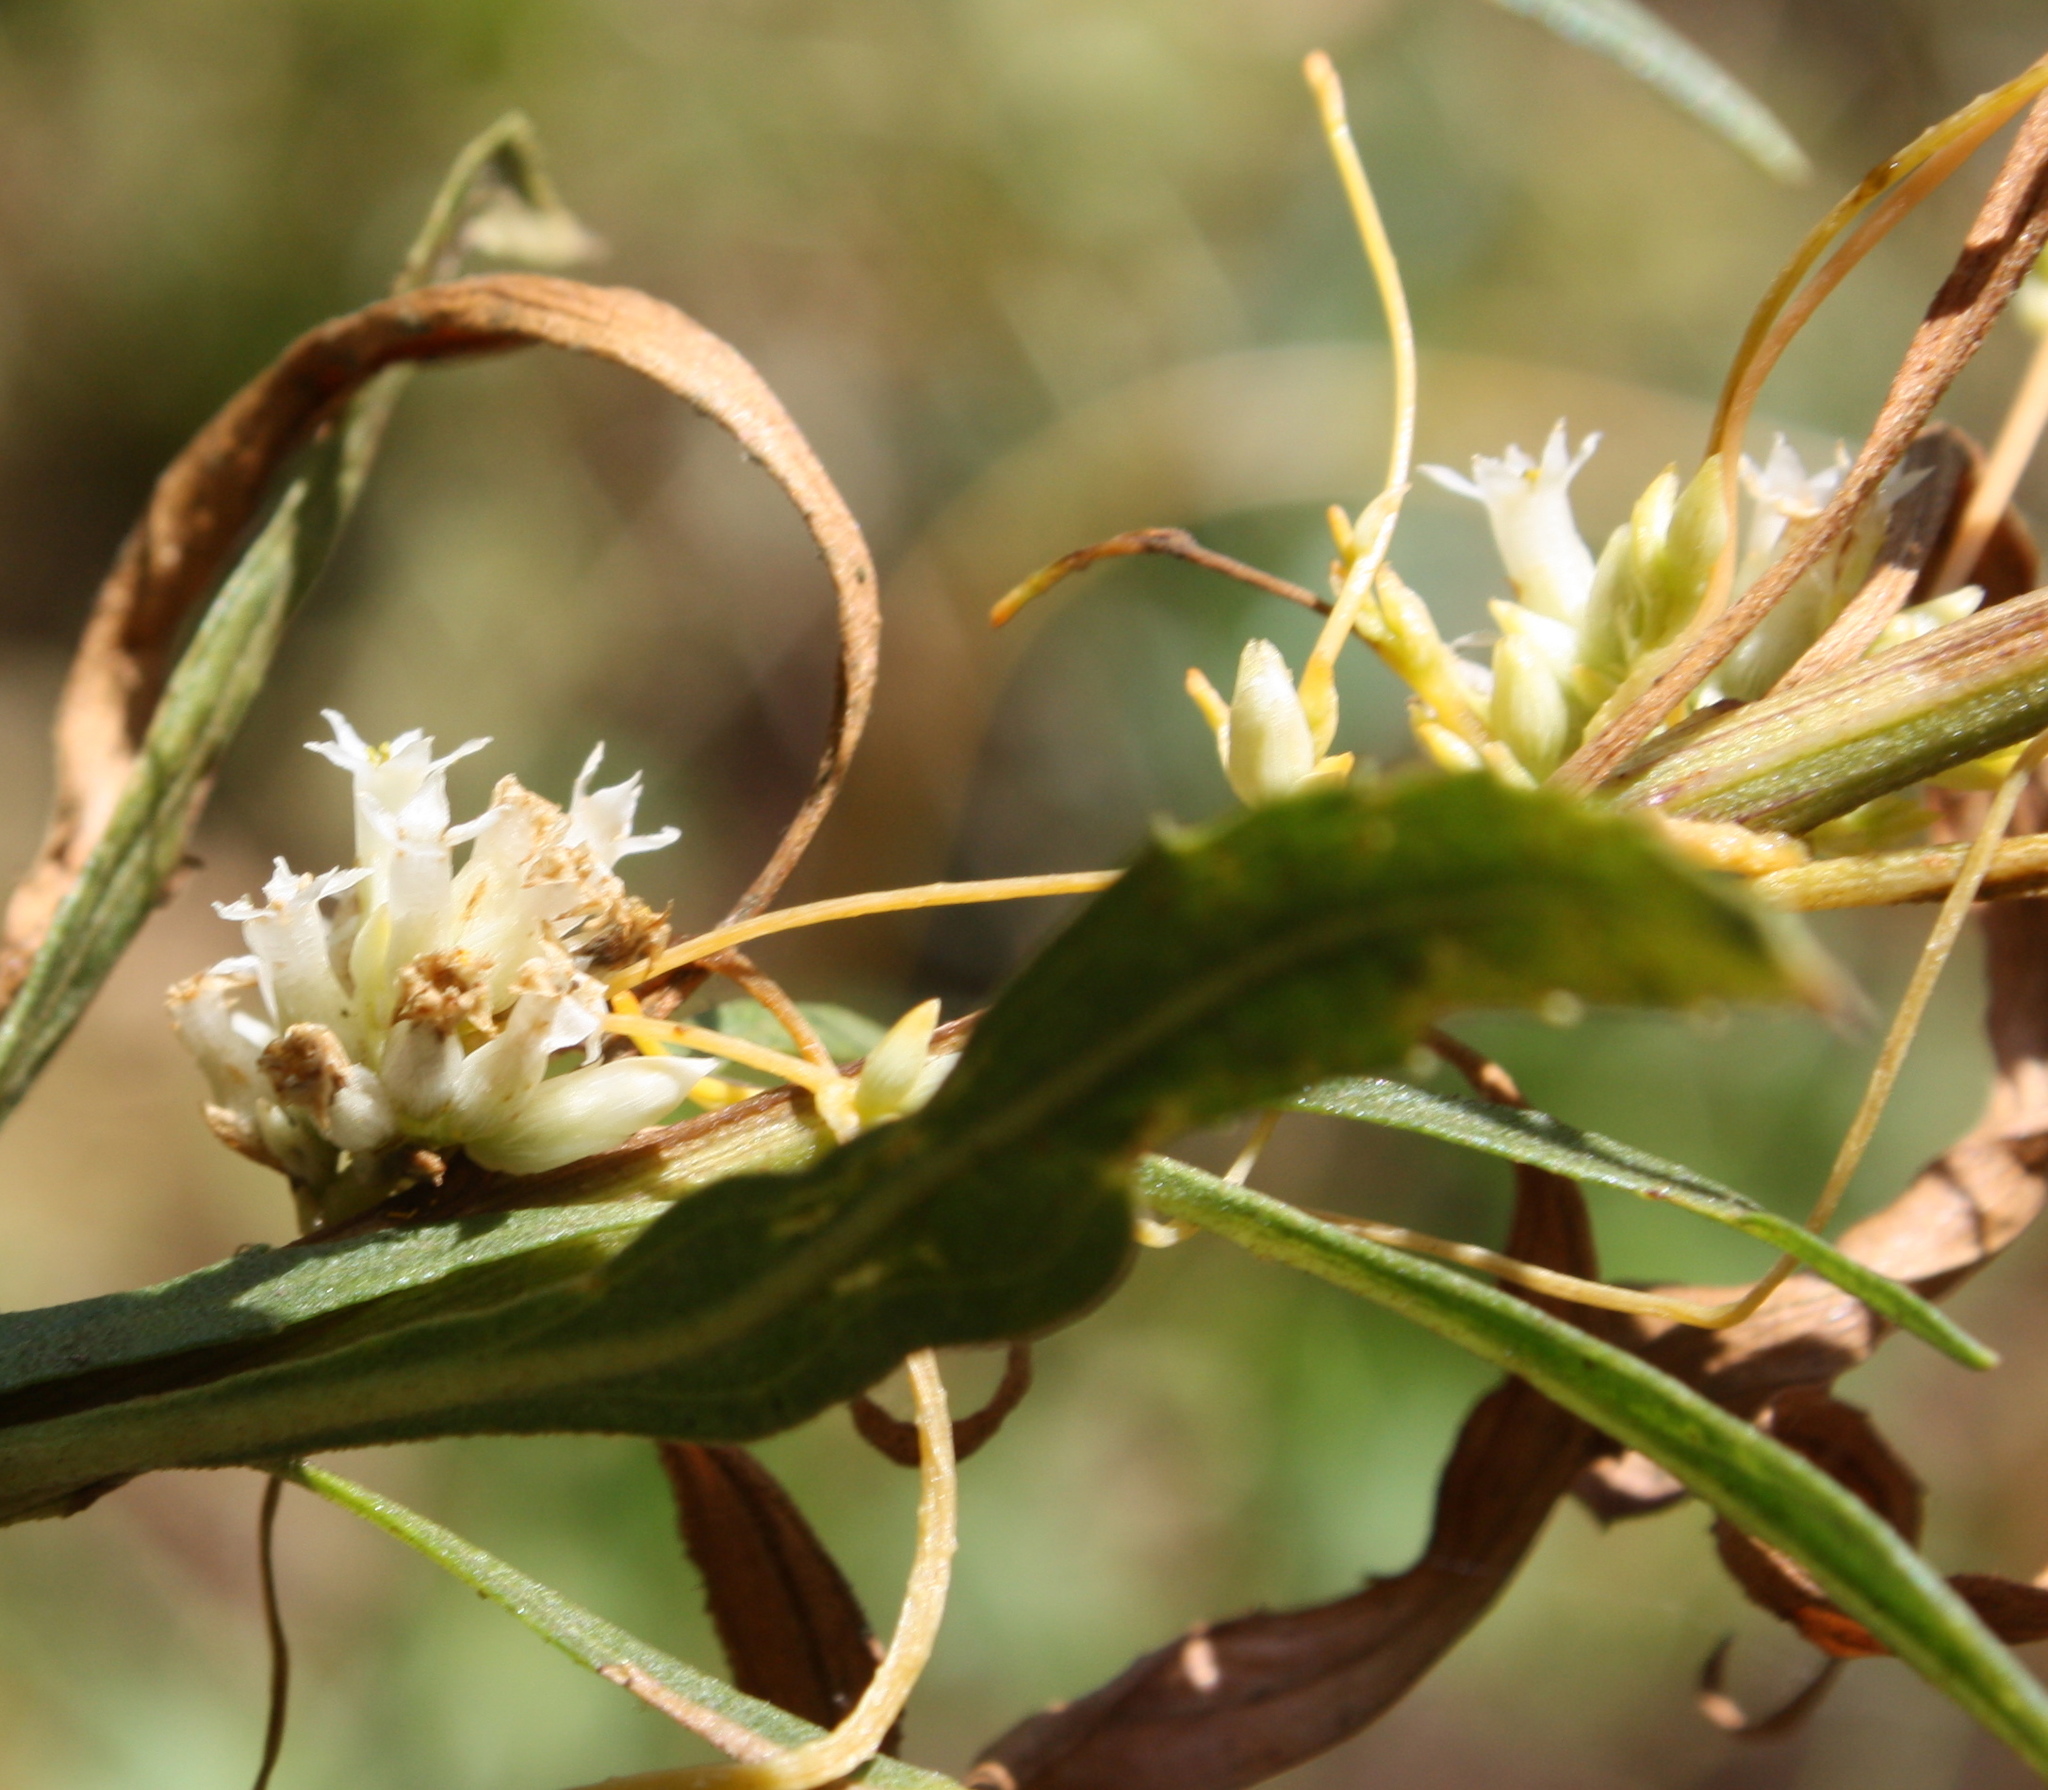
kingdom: Plantae
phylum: Tracheophyta
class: Magnoliopsida
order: Solanales
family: Convolvulaceae
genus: Cuscuta
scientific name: Cuscuta californica
